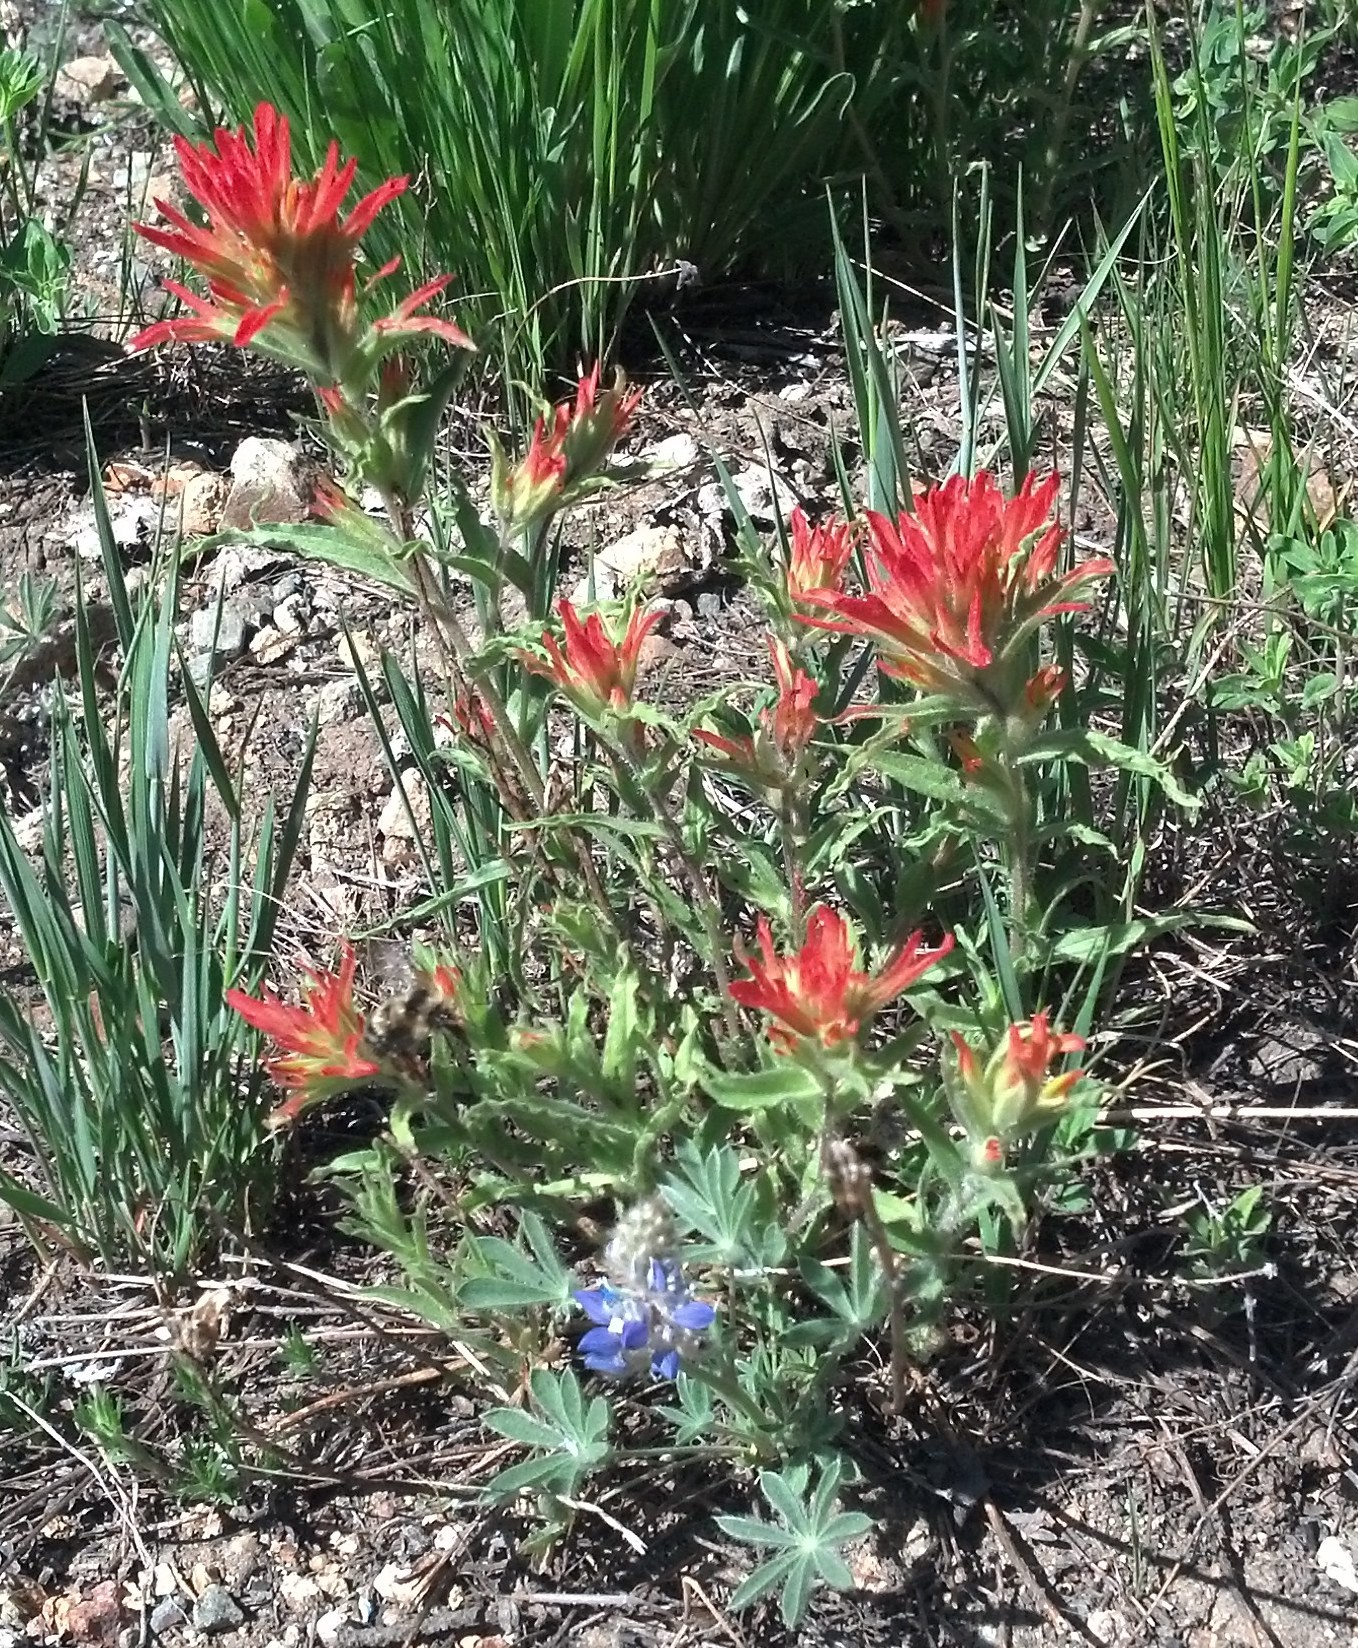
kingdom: Plantae
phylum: Tracheophyta
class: Magnoliopsida
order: Lamiales
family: Orobanchaceae
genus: Castilleja
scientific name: Castilleja applegatei
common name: Wavy-leaf paintbrush
